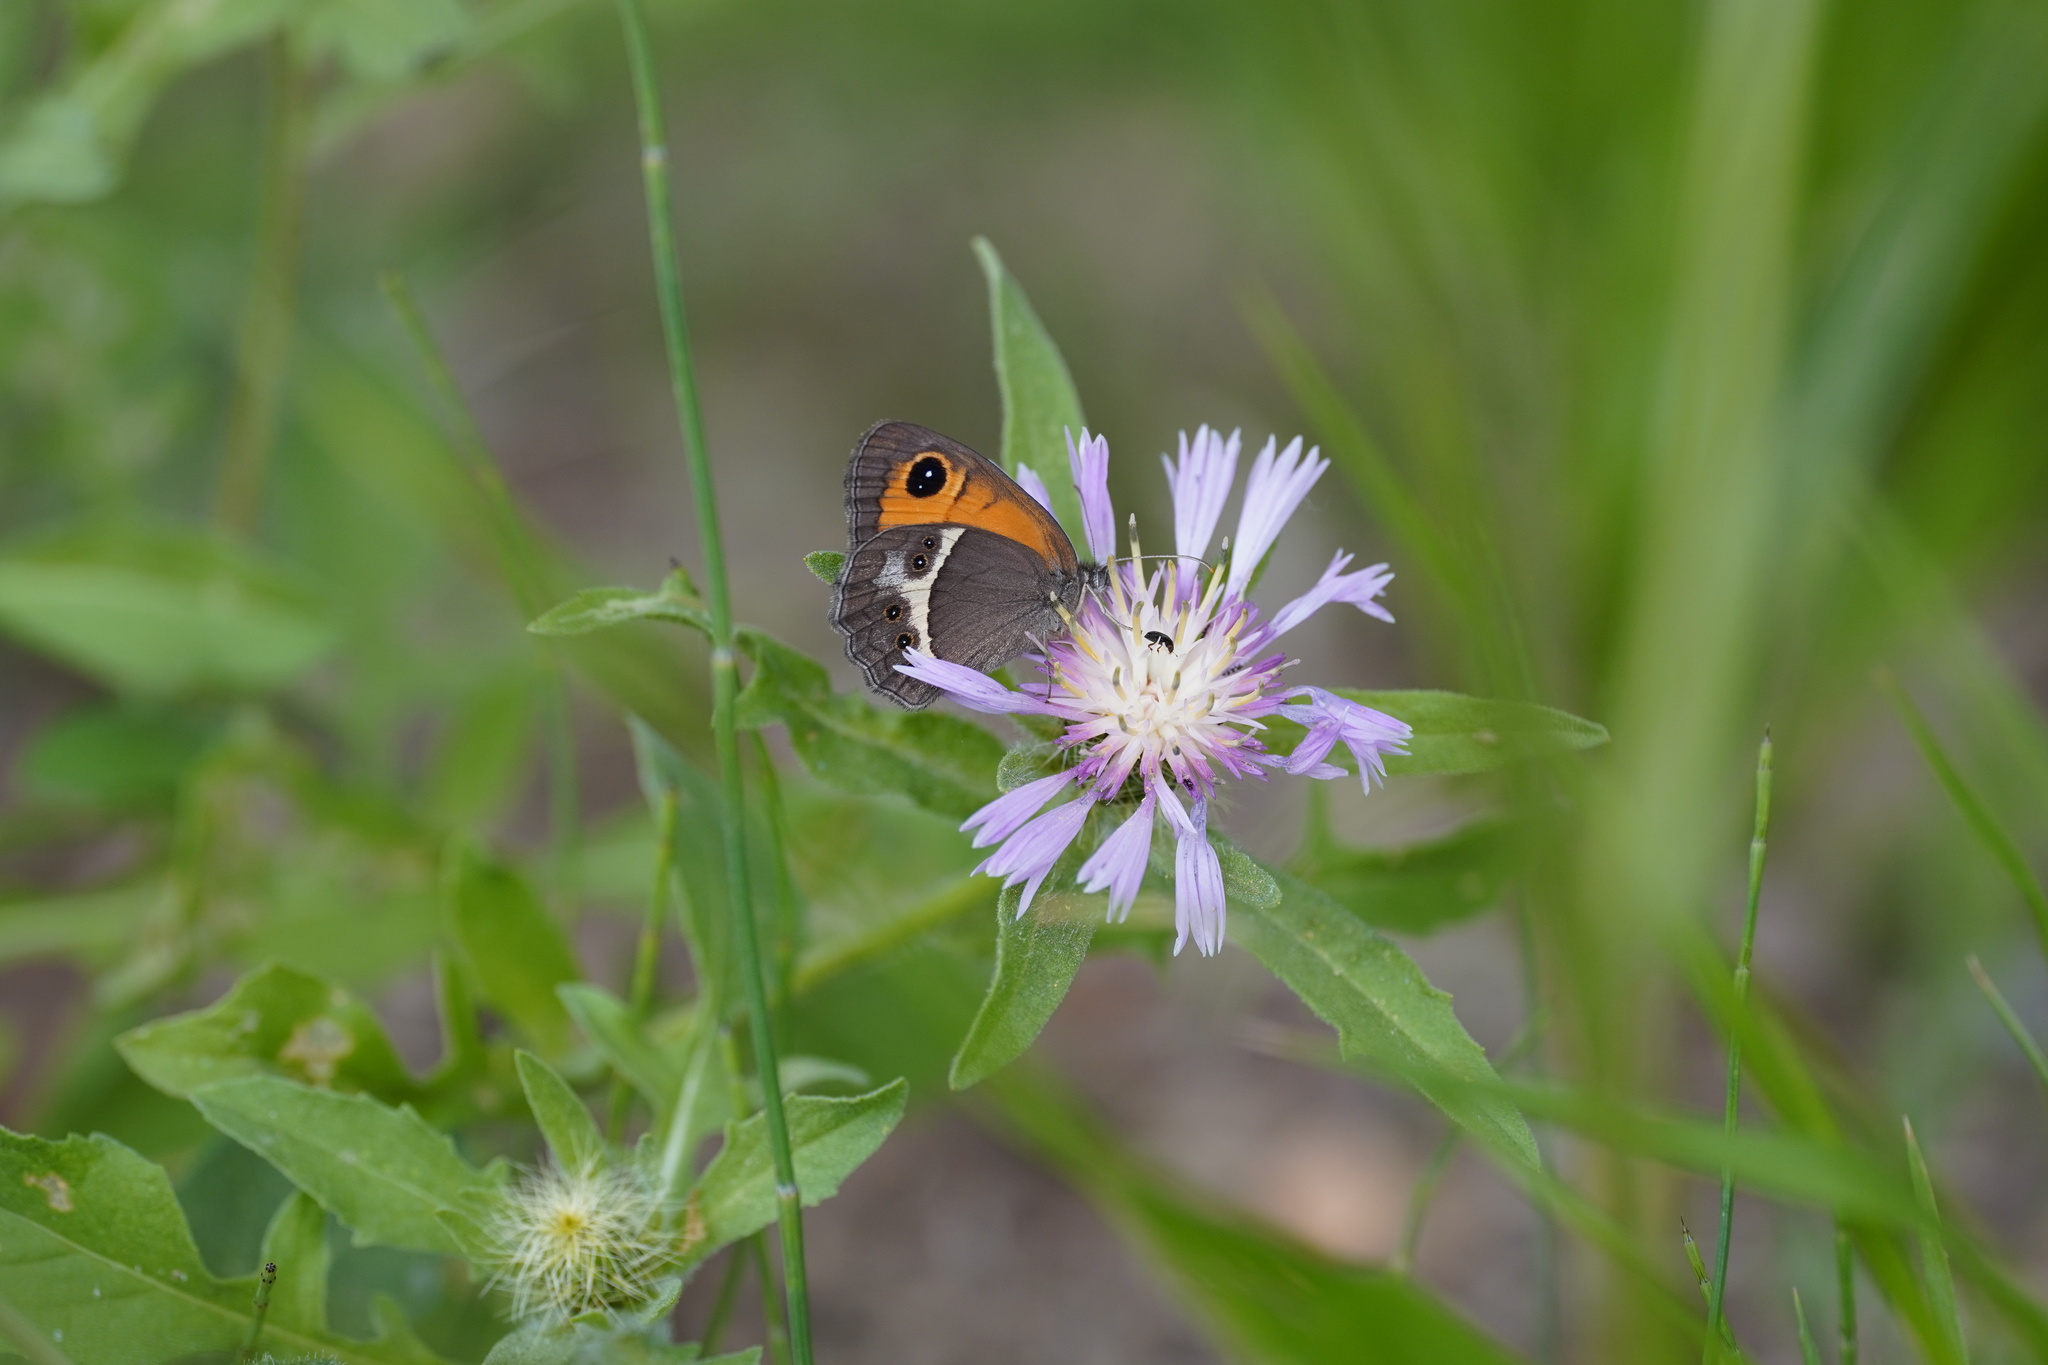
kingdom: Animalia
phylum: Arthropoda
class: Insecta
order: Lepidoptera
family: Nymphalidae
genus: Pyronia
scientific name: Pyronia bathseba
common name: Spanish gatekeeper
